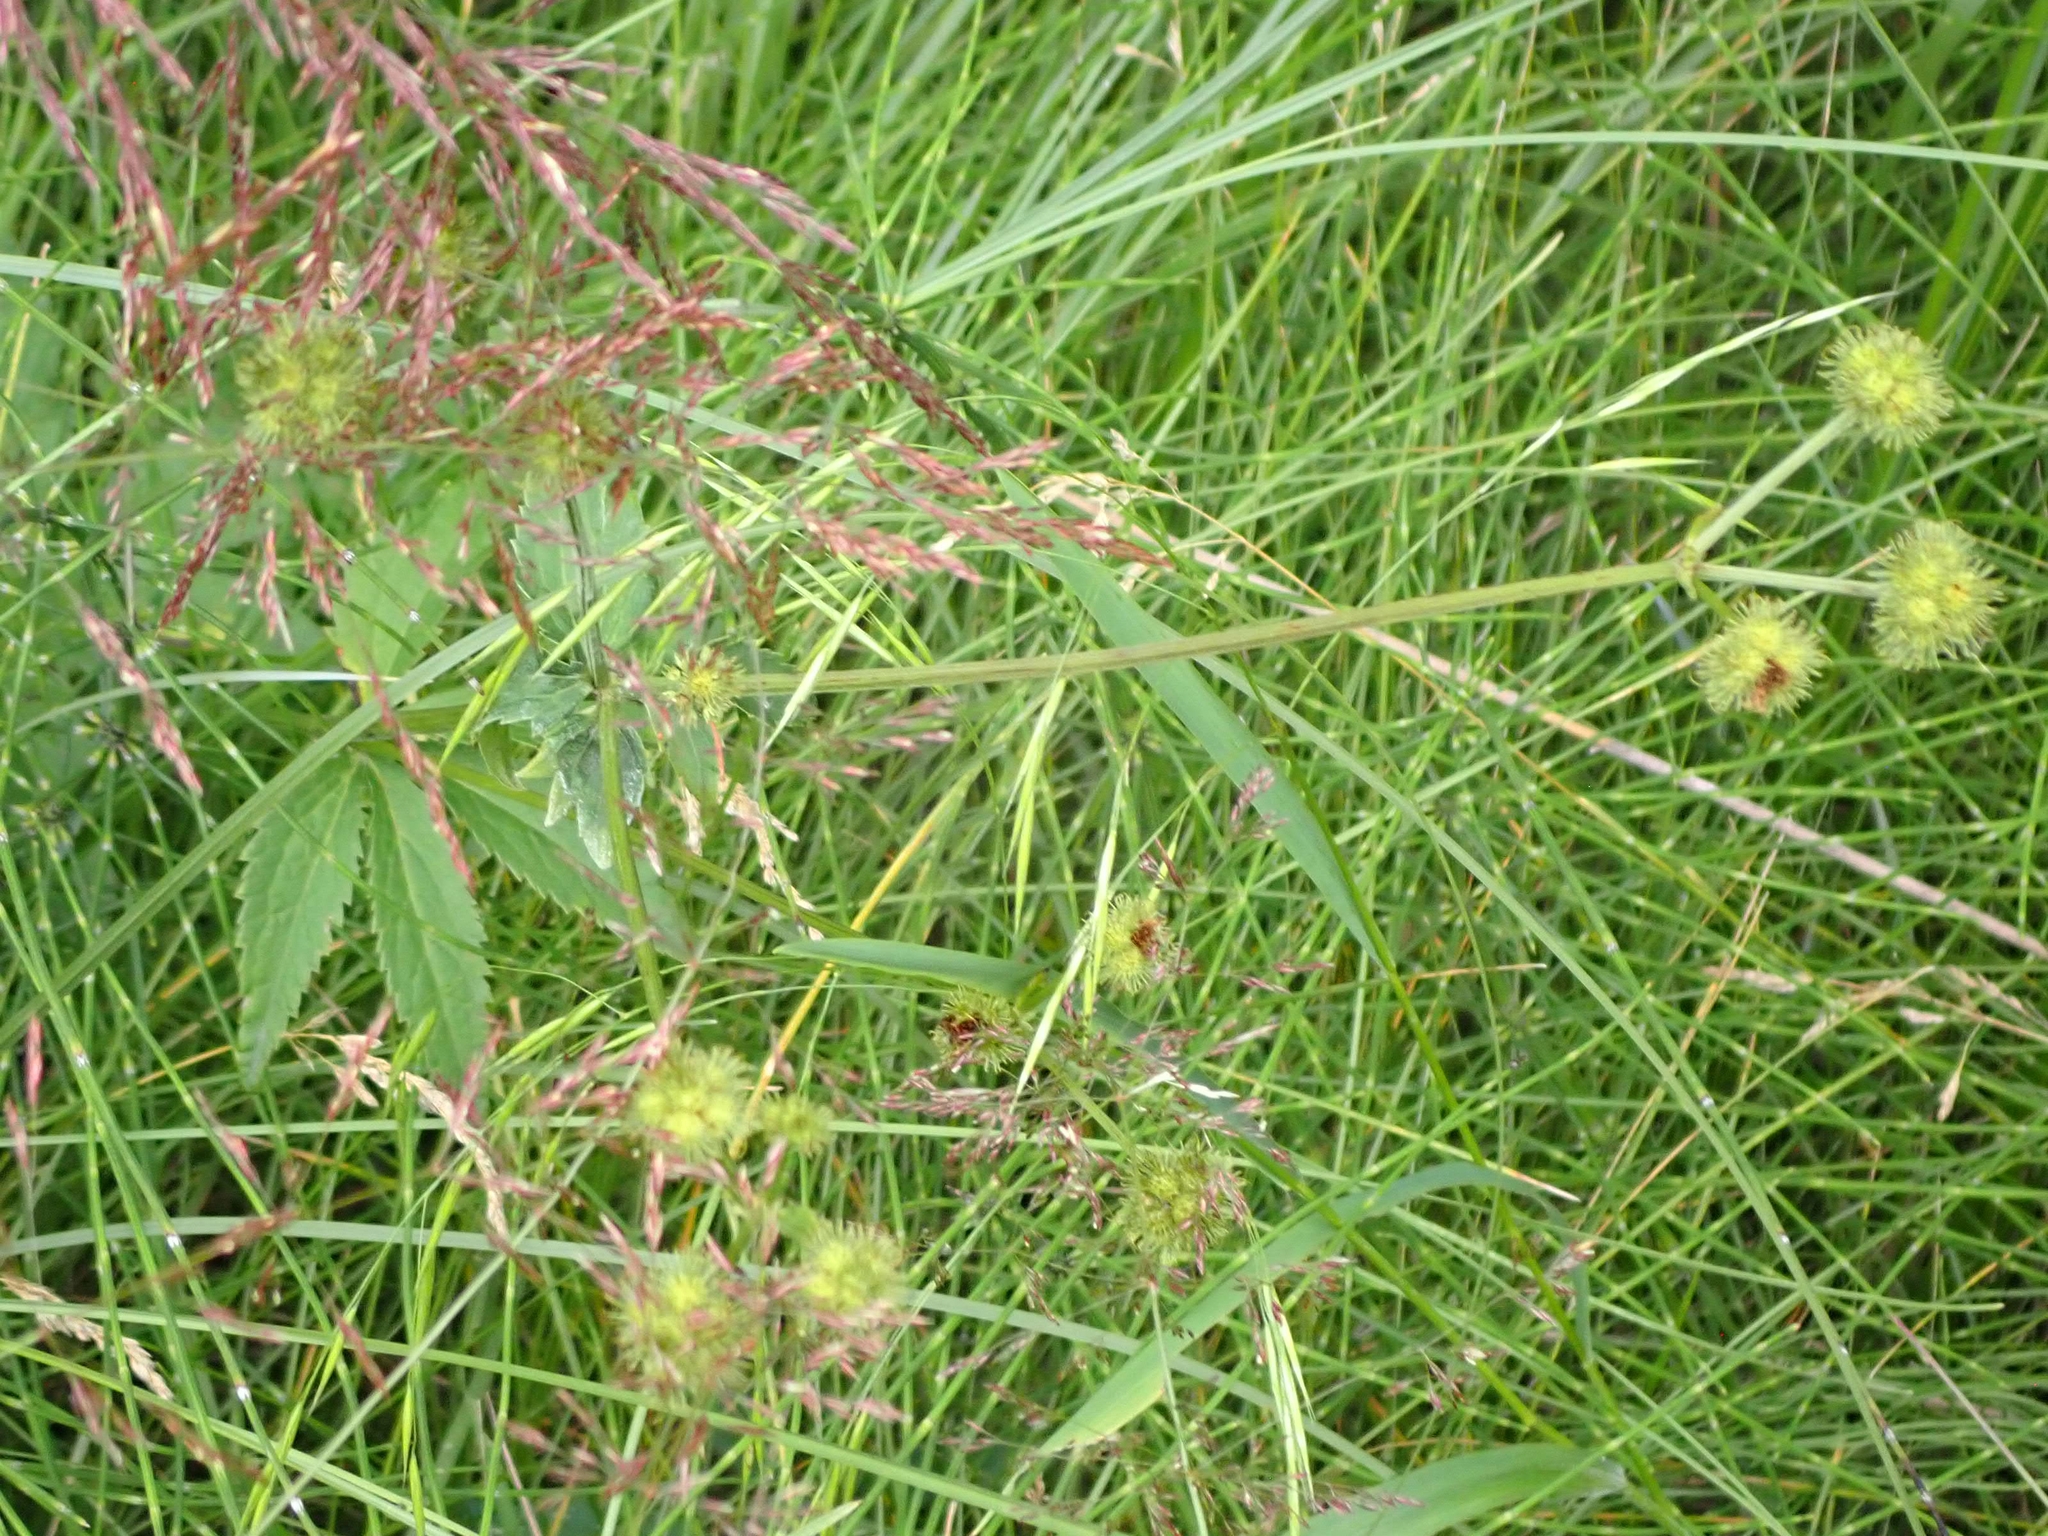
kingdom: Plantae
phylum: Tracheophyta
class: Magnoliopsida
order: Apiales
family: Apiaceae
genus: Sanicula
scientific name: Sanicula marilandica
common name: Black snakeroot
